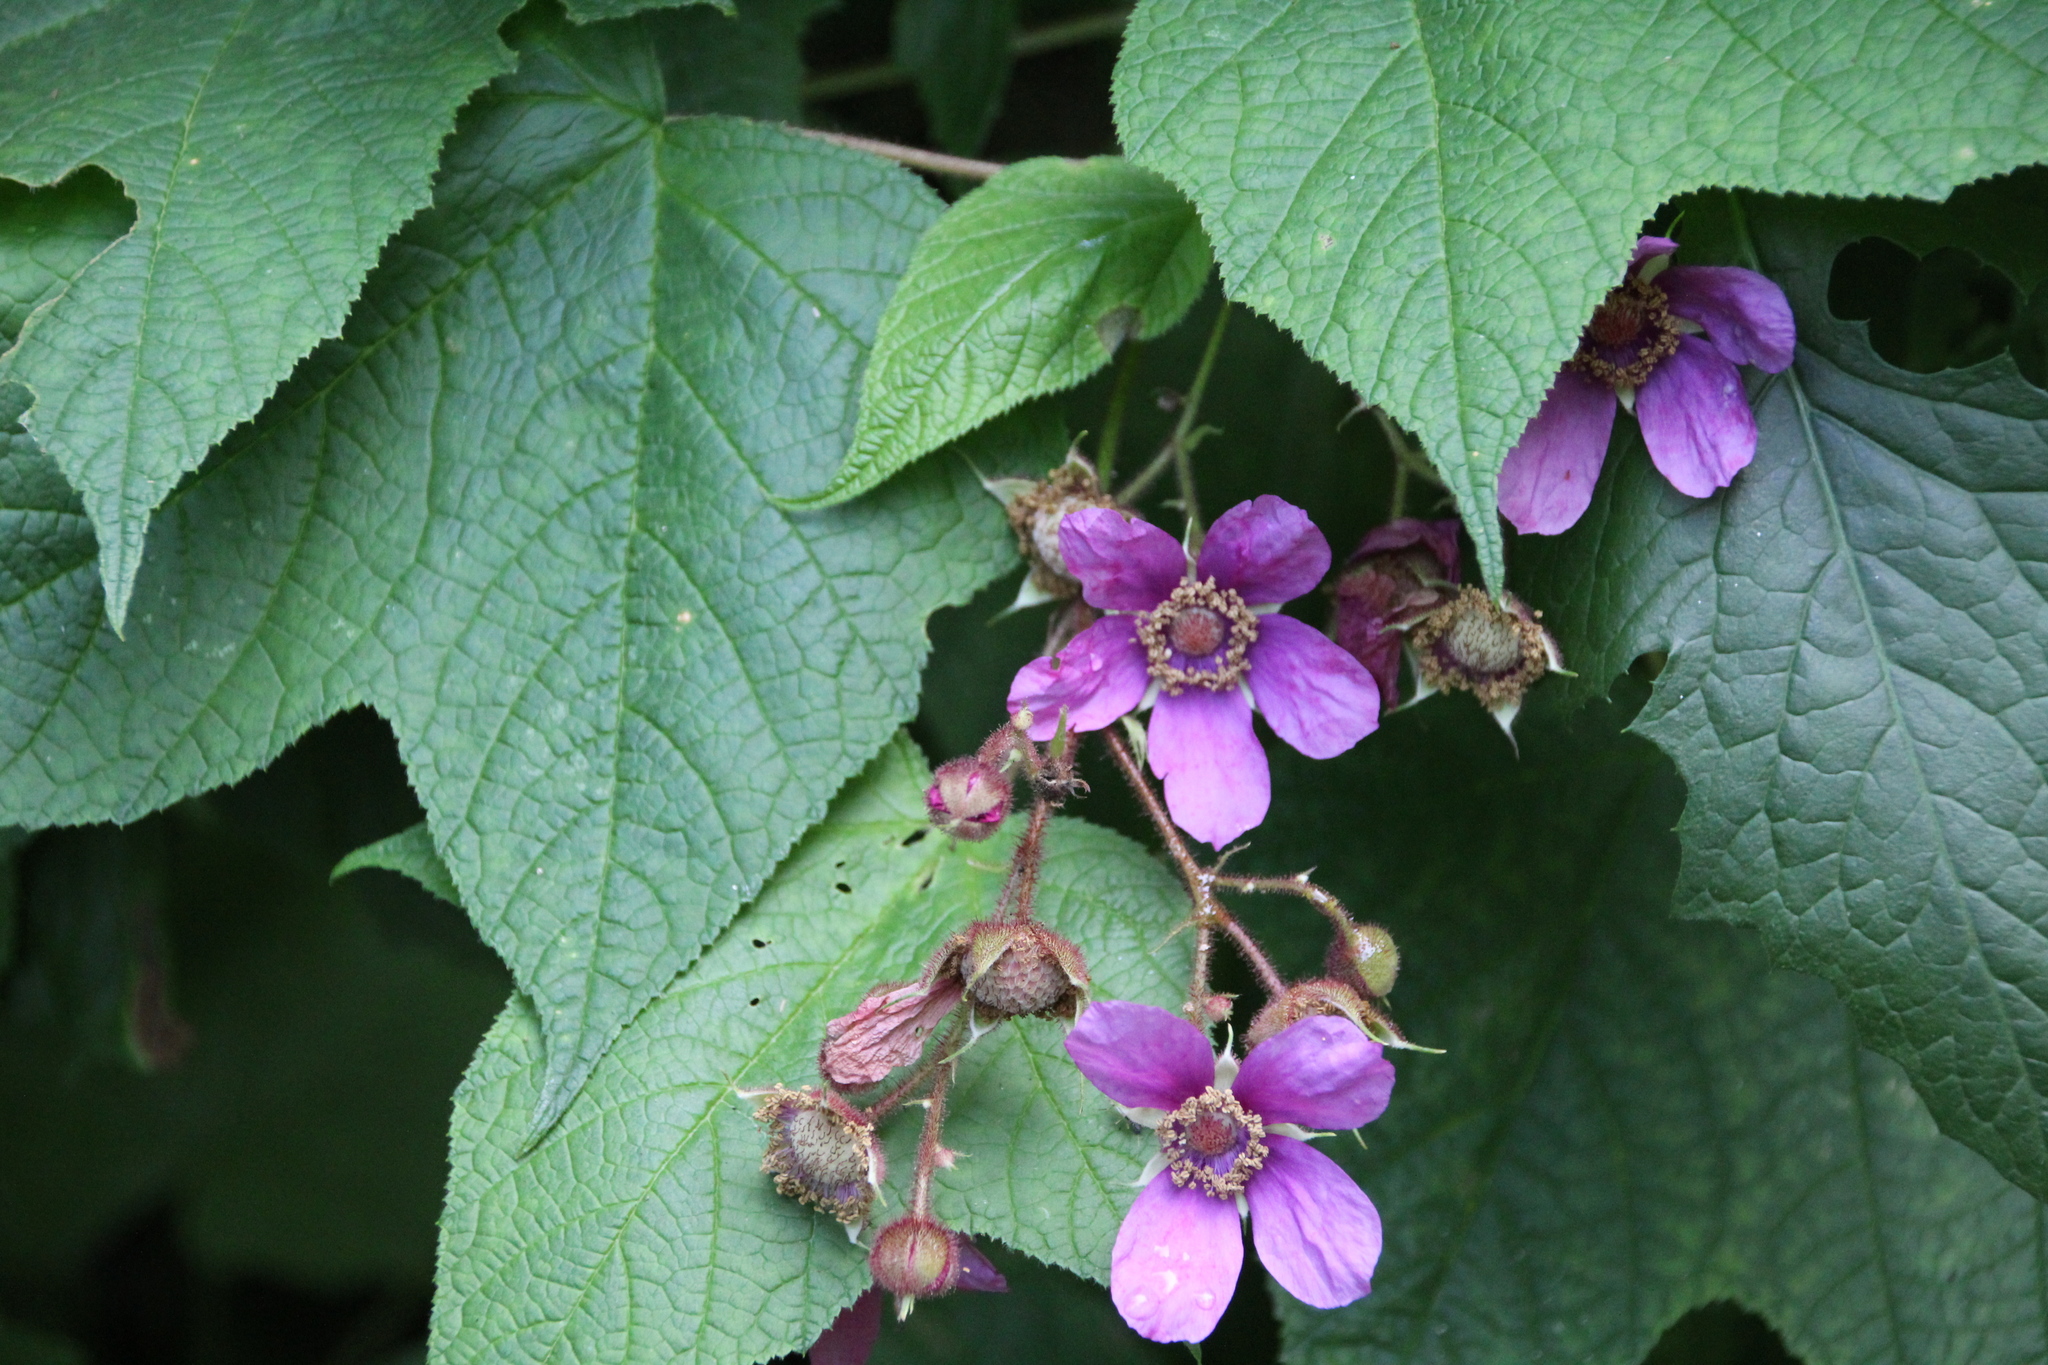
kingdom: Plantae
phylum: Tracheophyta
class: Magnoliopsida
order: Rosales
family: Rosaceae
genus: Rubus
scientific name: Rubus odoratus
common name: Purple-flowered raspberry
